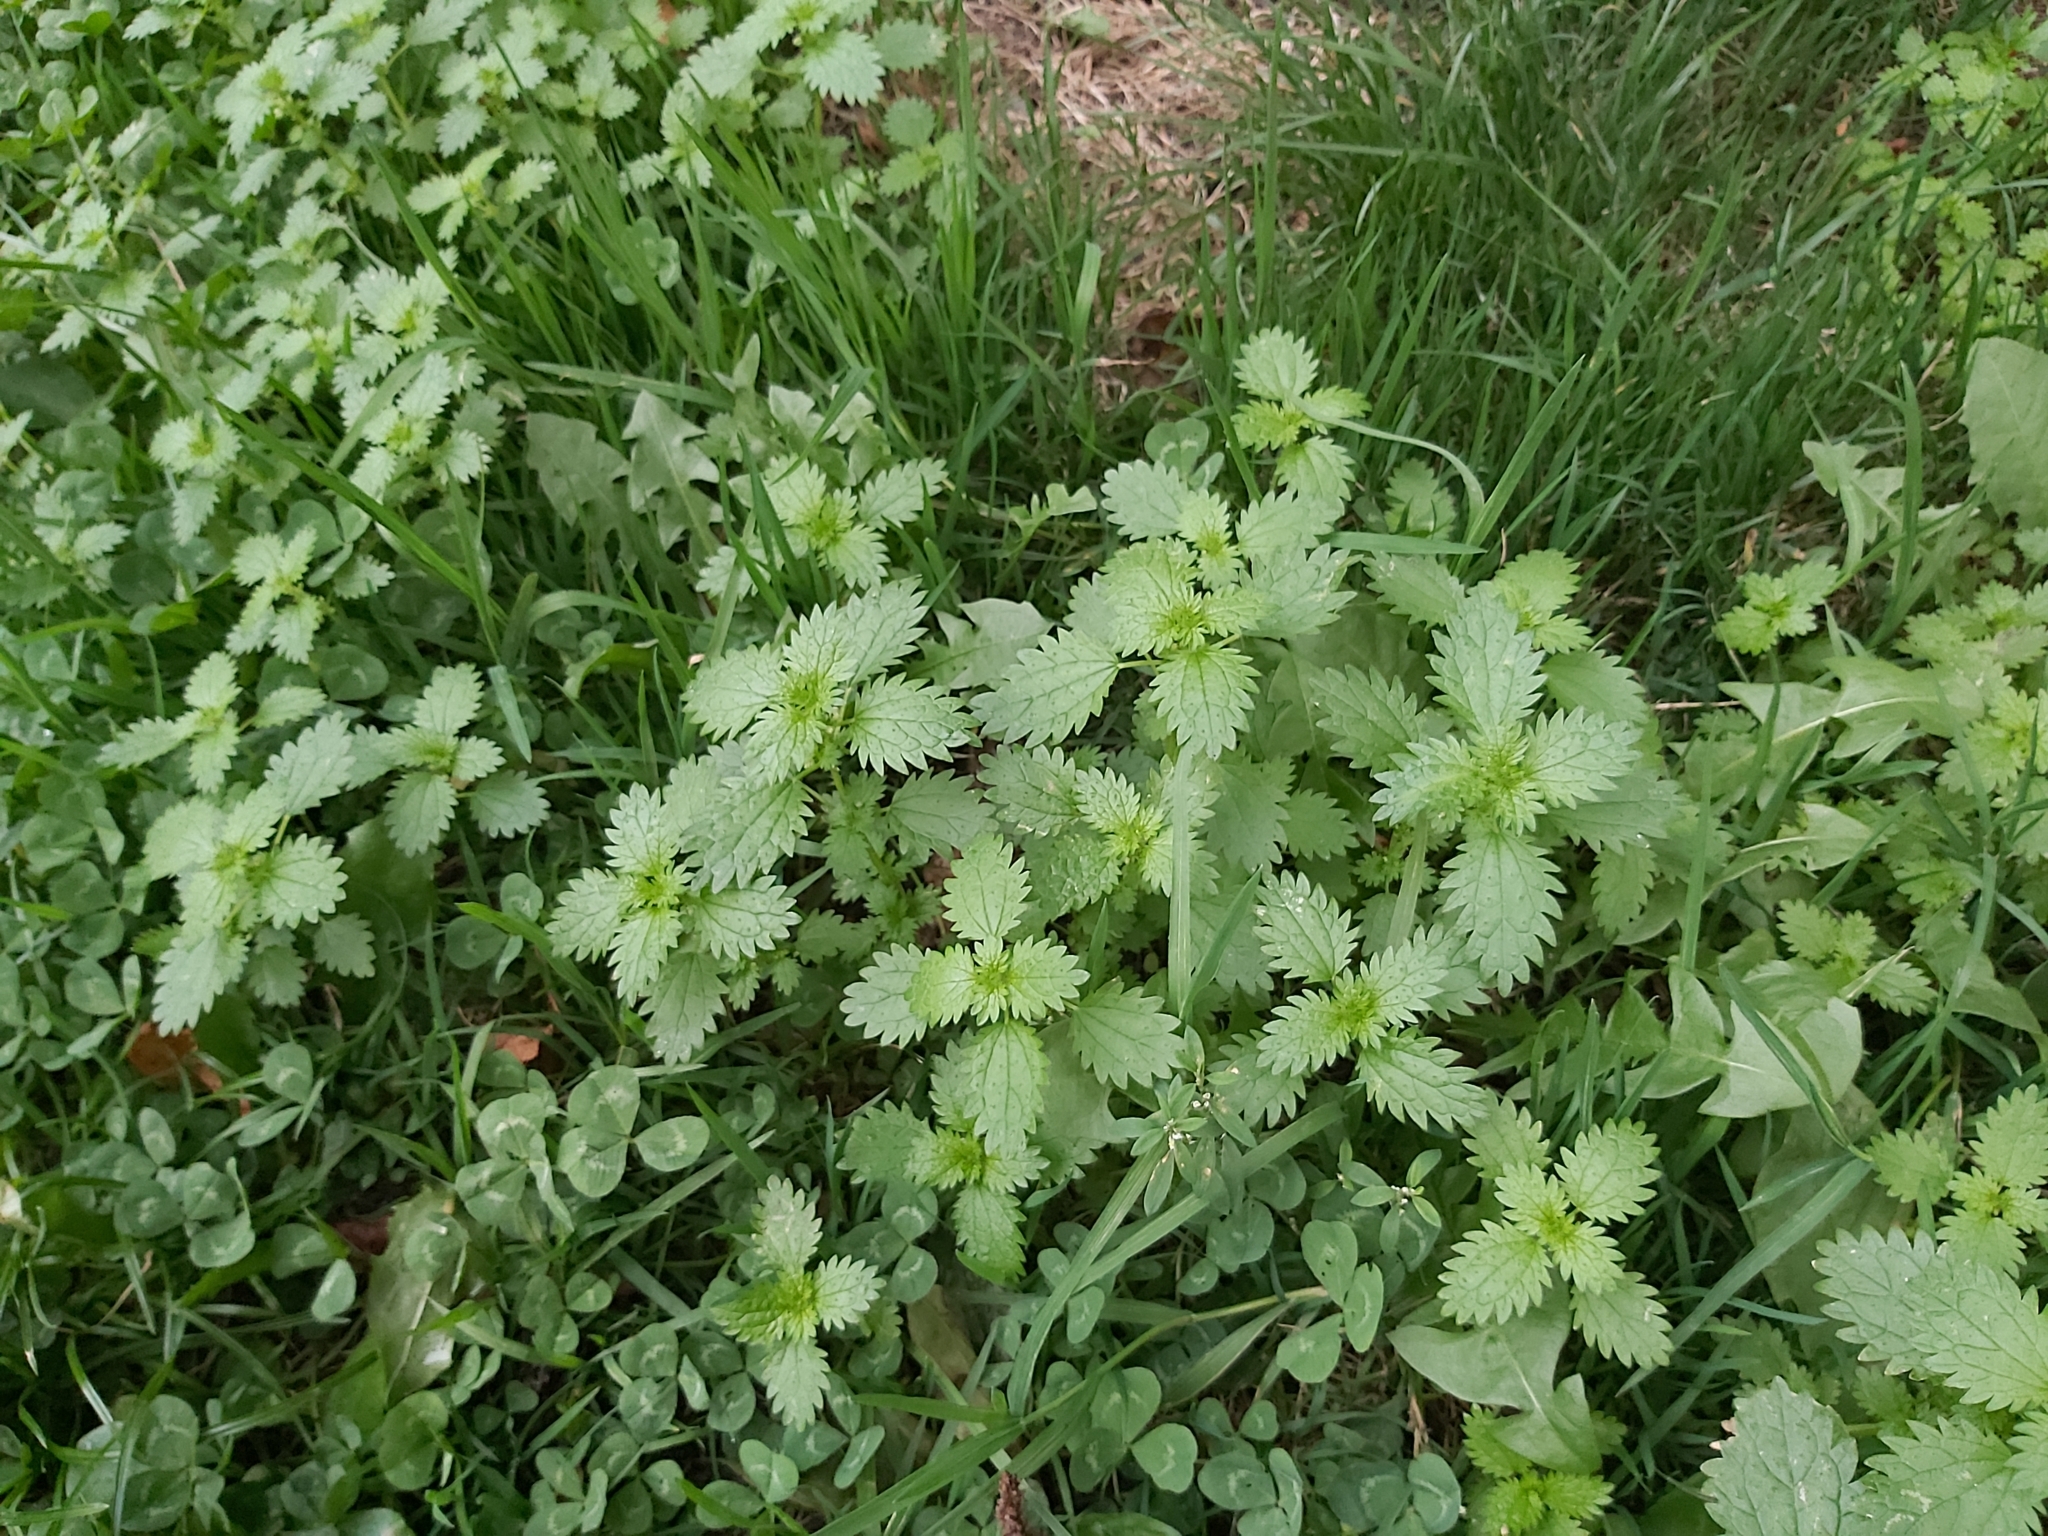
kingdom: Plantae
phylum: Tracheophyta
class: Magnoliopsida
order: Rosales
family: Urticaceae
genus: Urtica
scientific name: Urtica urens
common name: Dwarf nettle
